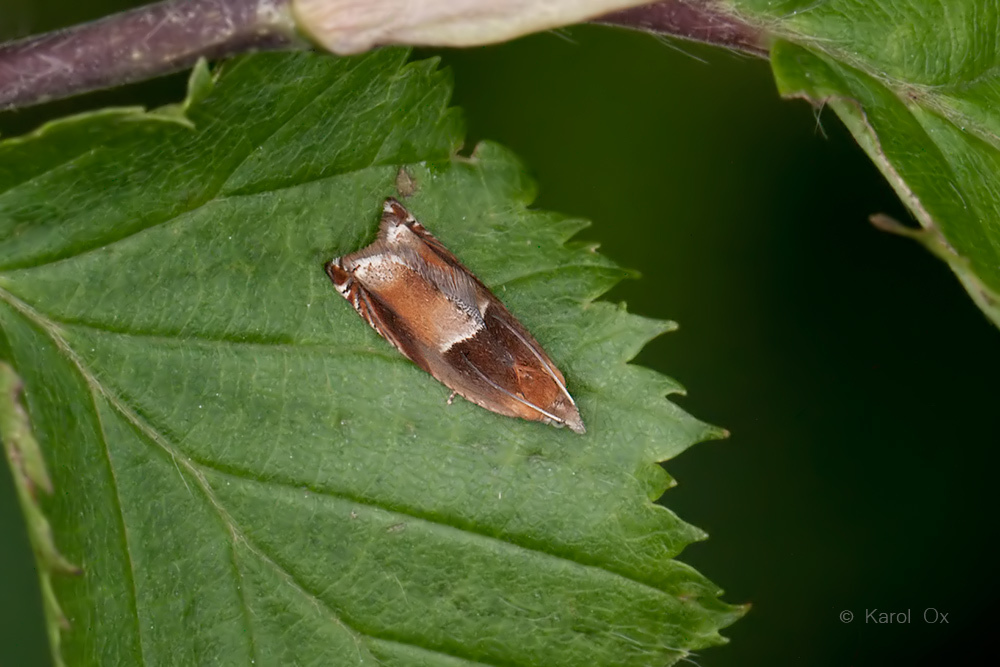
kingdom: Animalia
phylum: Arthropoda
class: Insecta
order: Lepidoptera
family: Tortricidae
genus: Ancylis
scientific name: Ancylis mitterbacheriana
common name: Red roller
